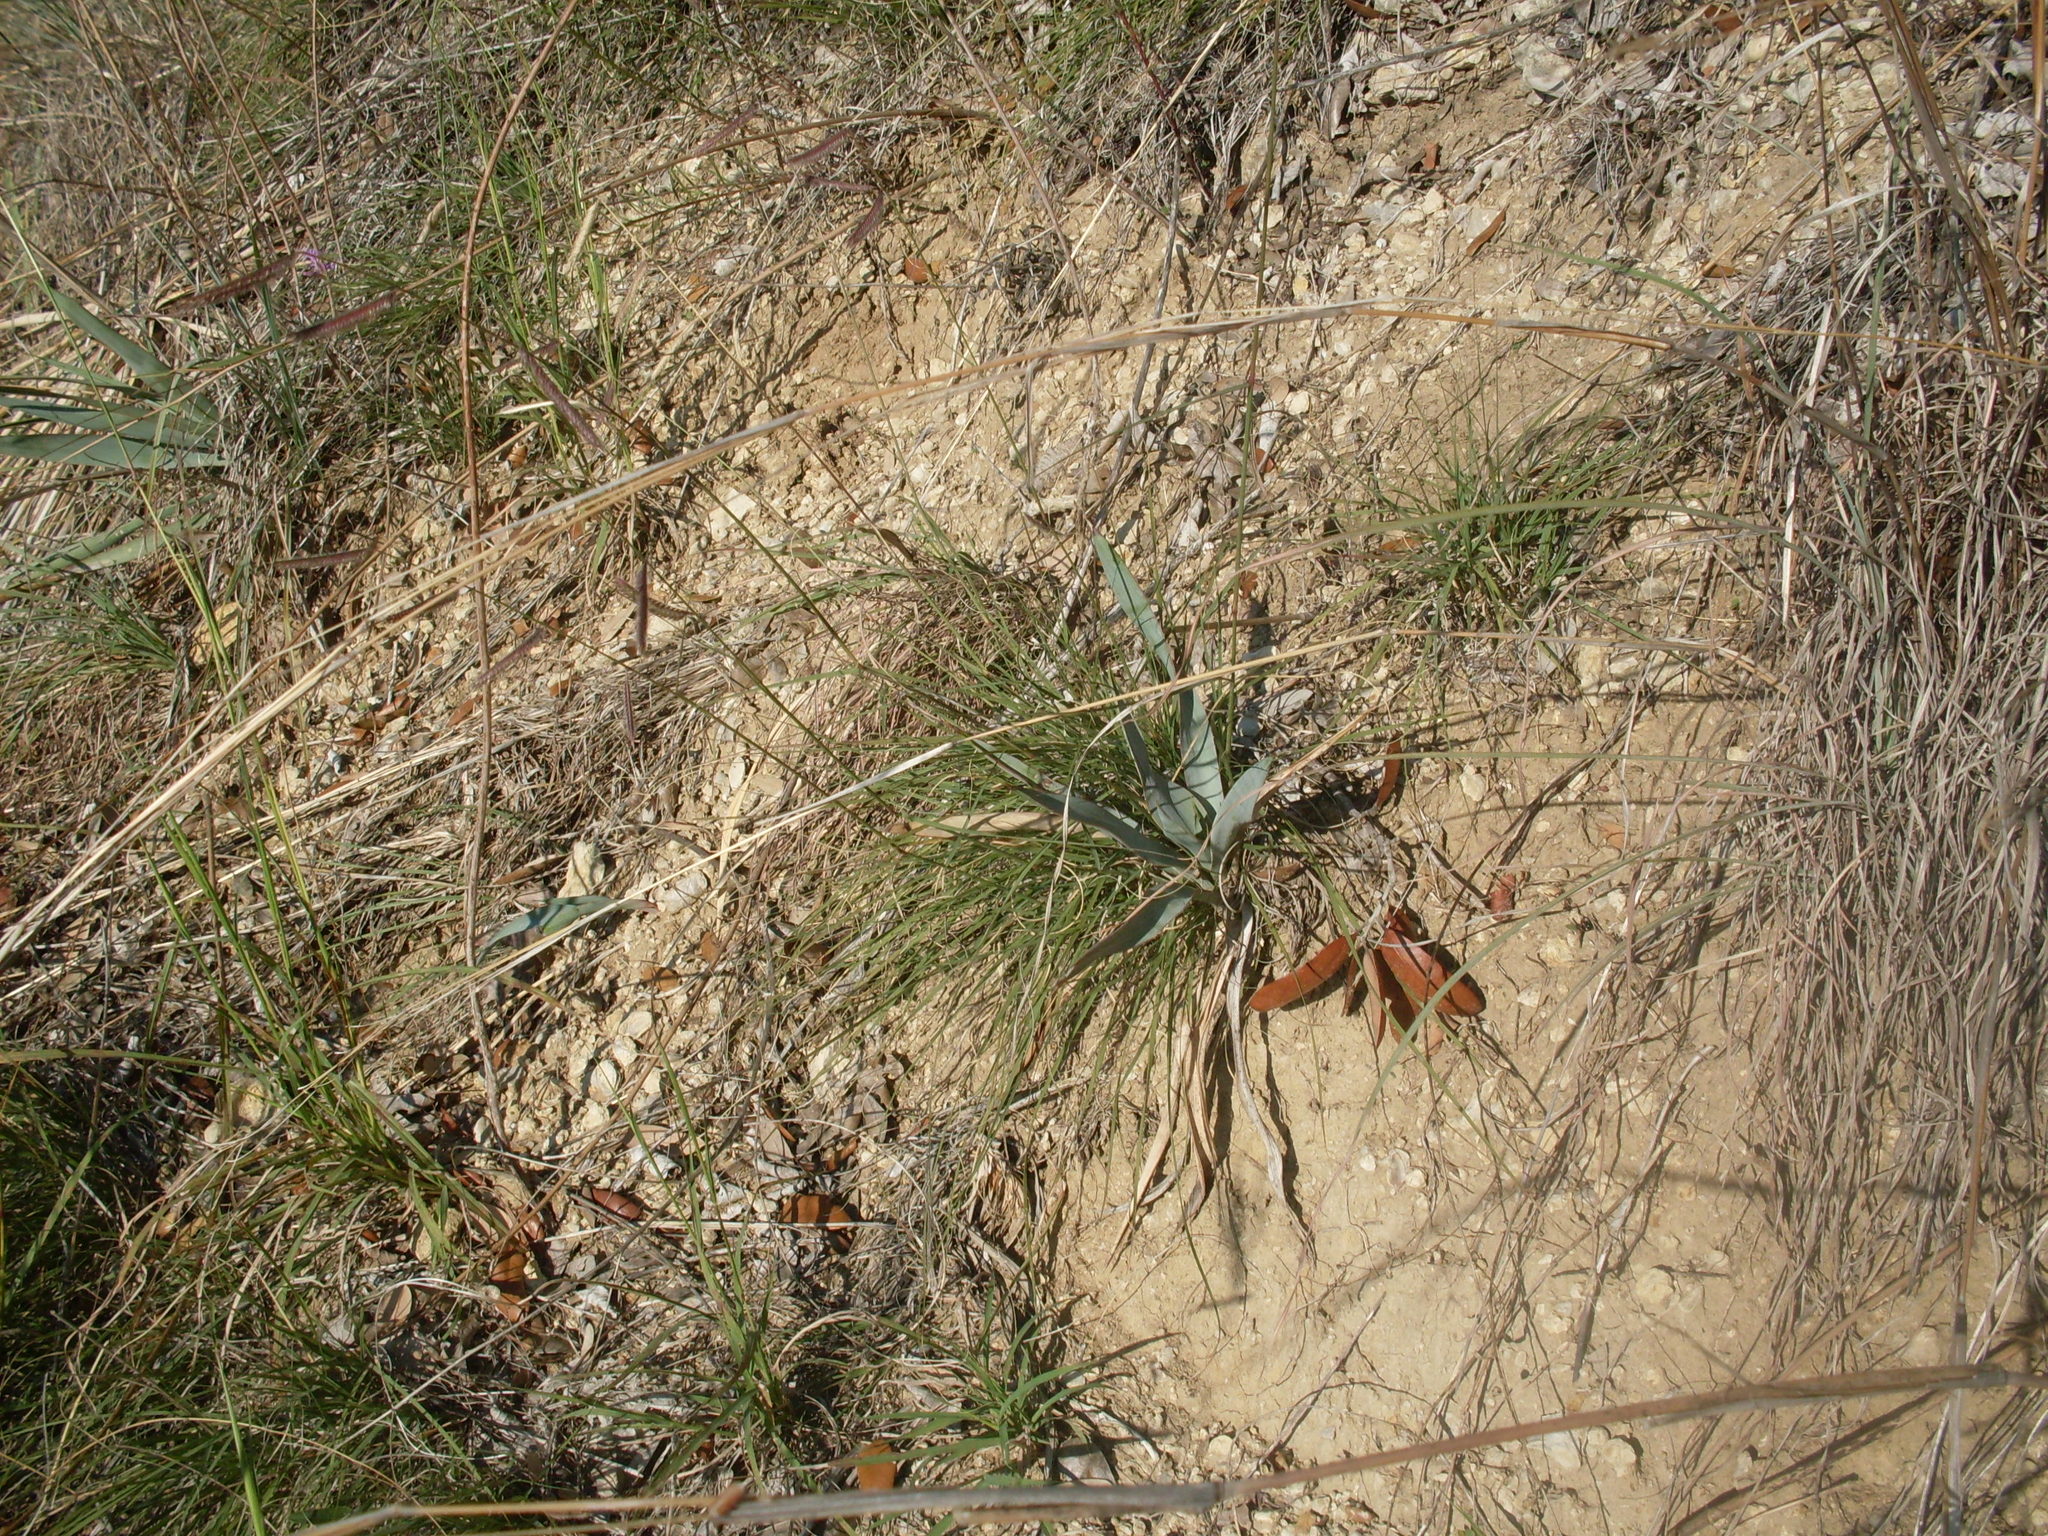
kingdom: Plantae
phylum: Tracheophyta
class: Liliopsida
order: Poales
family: Poaceae
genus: Bouteloua
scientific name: Bouteloua pectinata
